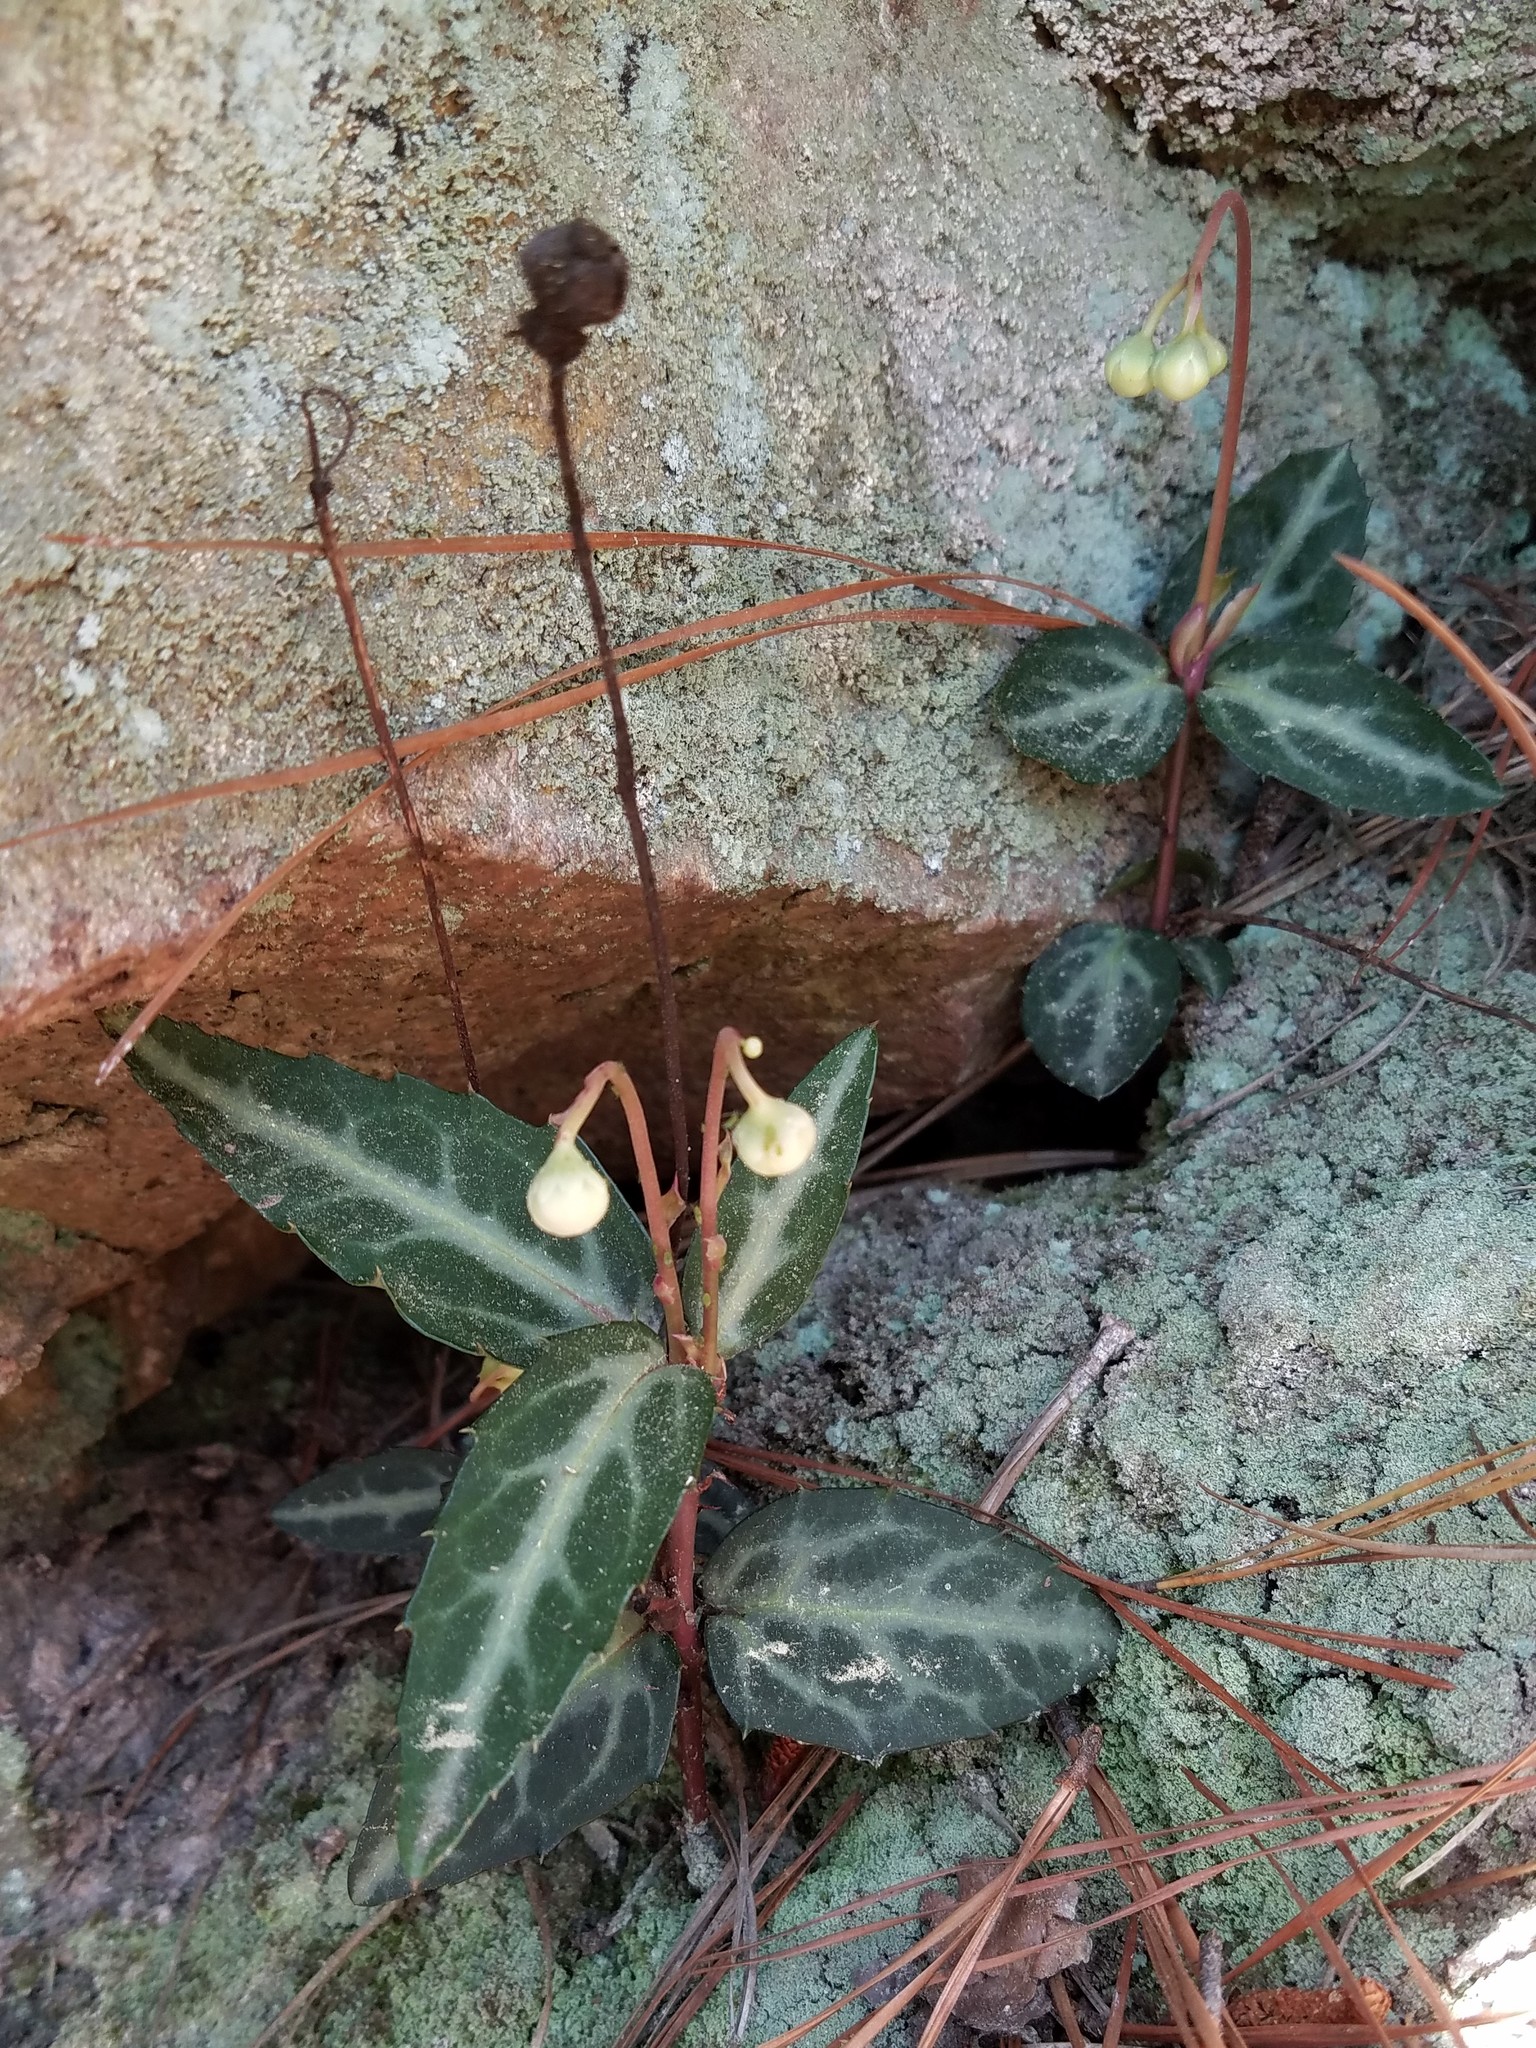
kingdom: Plantae
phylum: Tracheophyta
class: Magnoliopsida
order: Ericales
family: Ericaceae
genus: Chimaphila
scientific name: Chimaphila maculata
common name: Spotted pipsissewa
